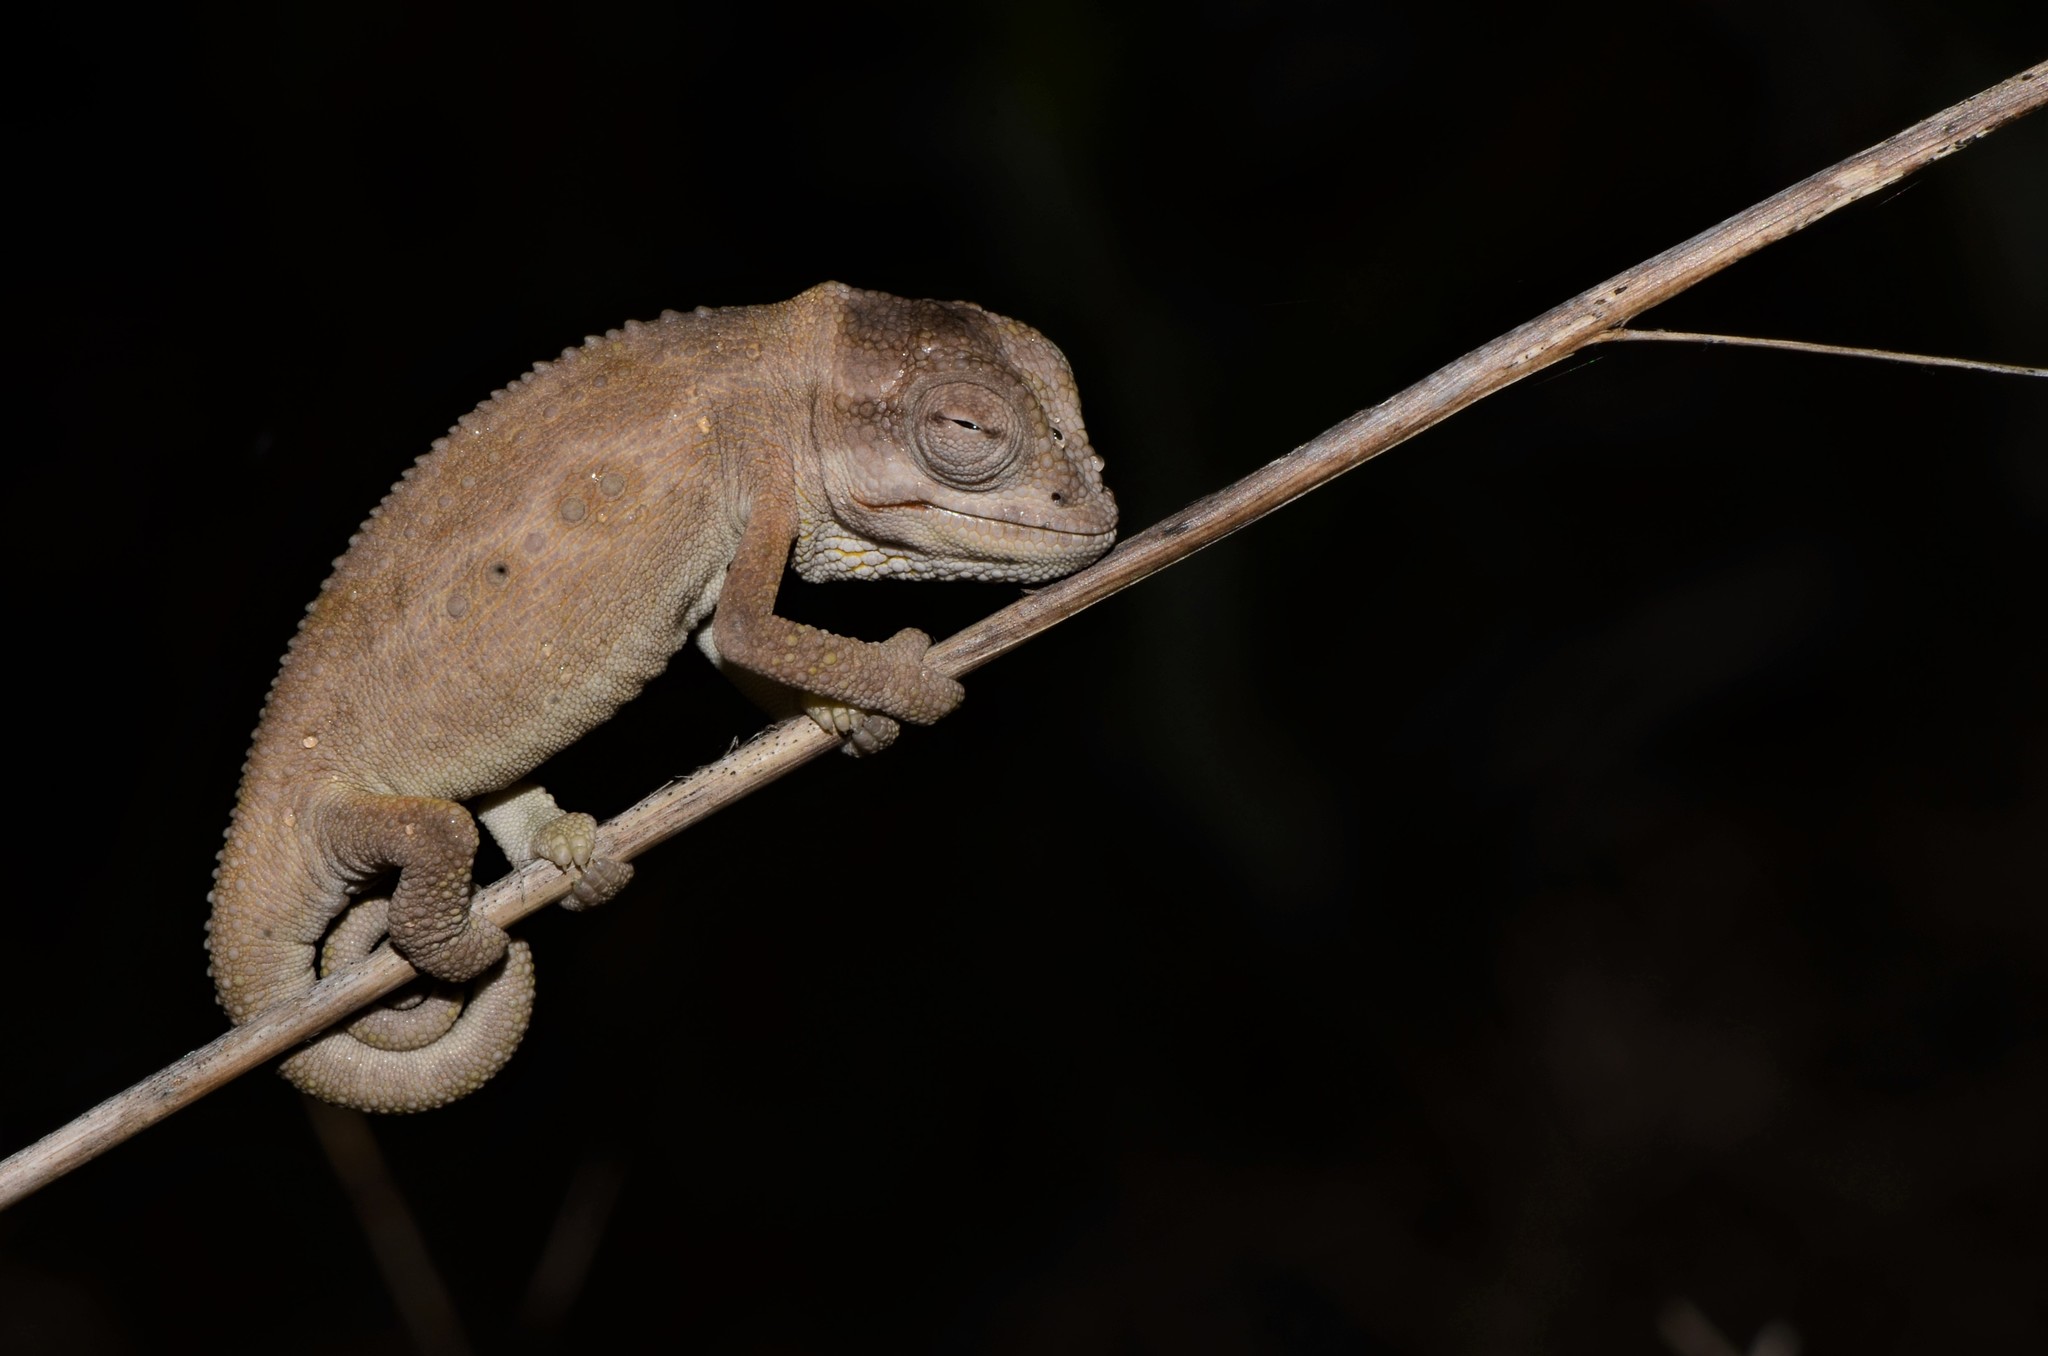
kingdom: Animalia
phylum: Chordata
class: Squamata
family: Chamaeleonidae
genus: Bradypodion
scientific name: Bradypodion pumilum
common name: Cape dwarf chameleon
